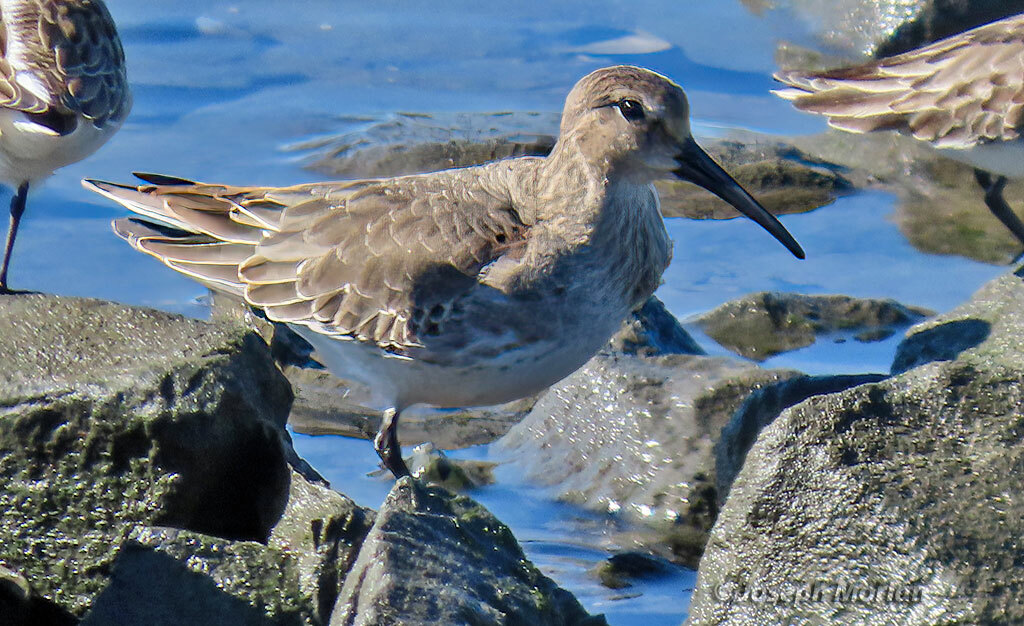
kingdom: Animalia
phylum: Chordata
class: Aves
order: Charadriiformes
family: Scolopacidae
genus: Calidris
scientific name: Calidris alpina
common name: Dunlin
